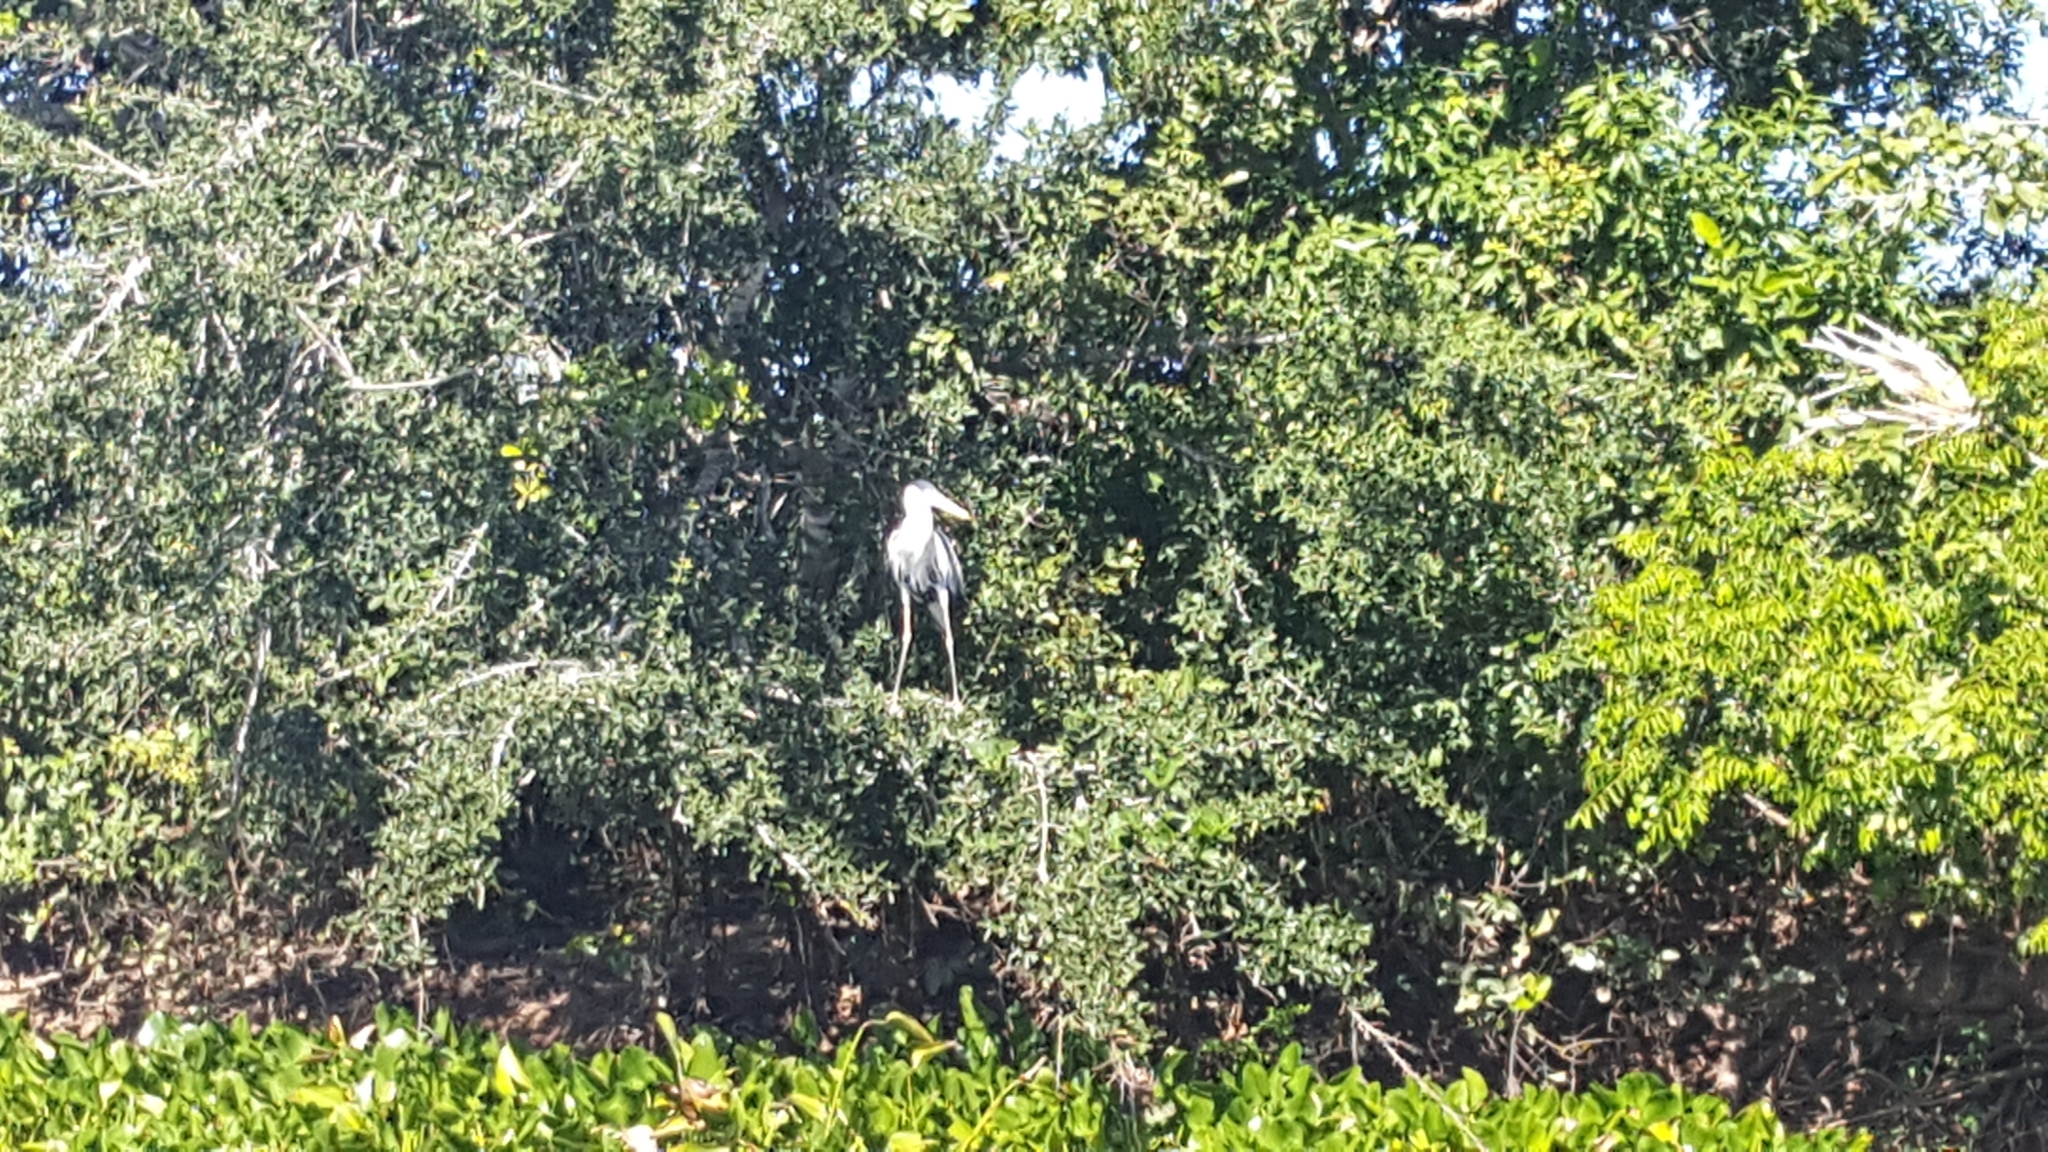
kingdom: Animalia
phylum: Chordata
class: Aves
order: Pelecaniformes
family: Ardeidae
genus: Ardea
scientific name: Ardea cocoi
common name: Cocoi heron
